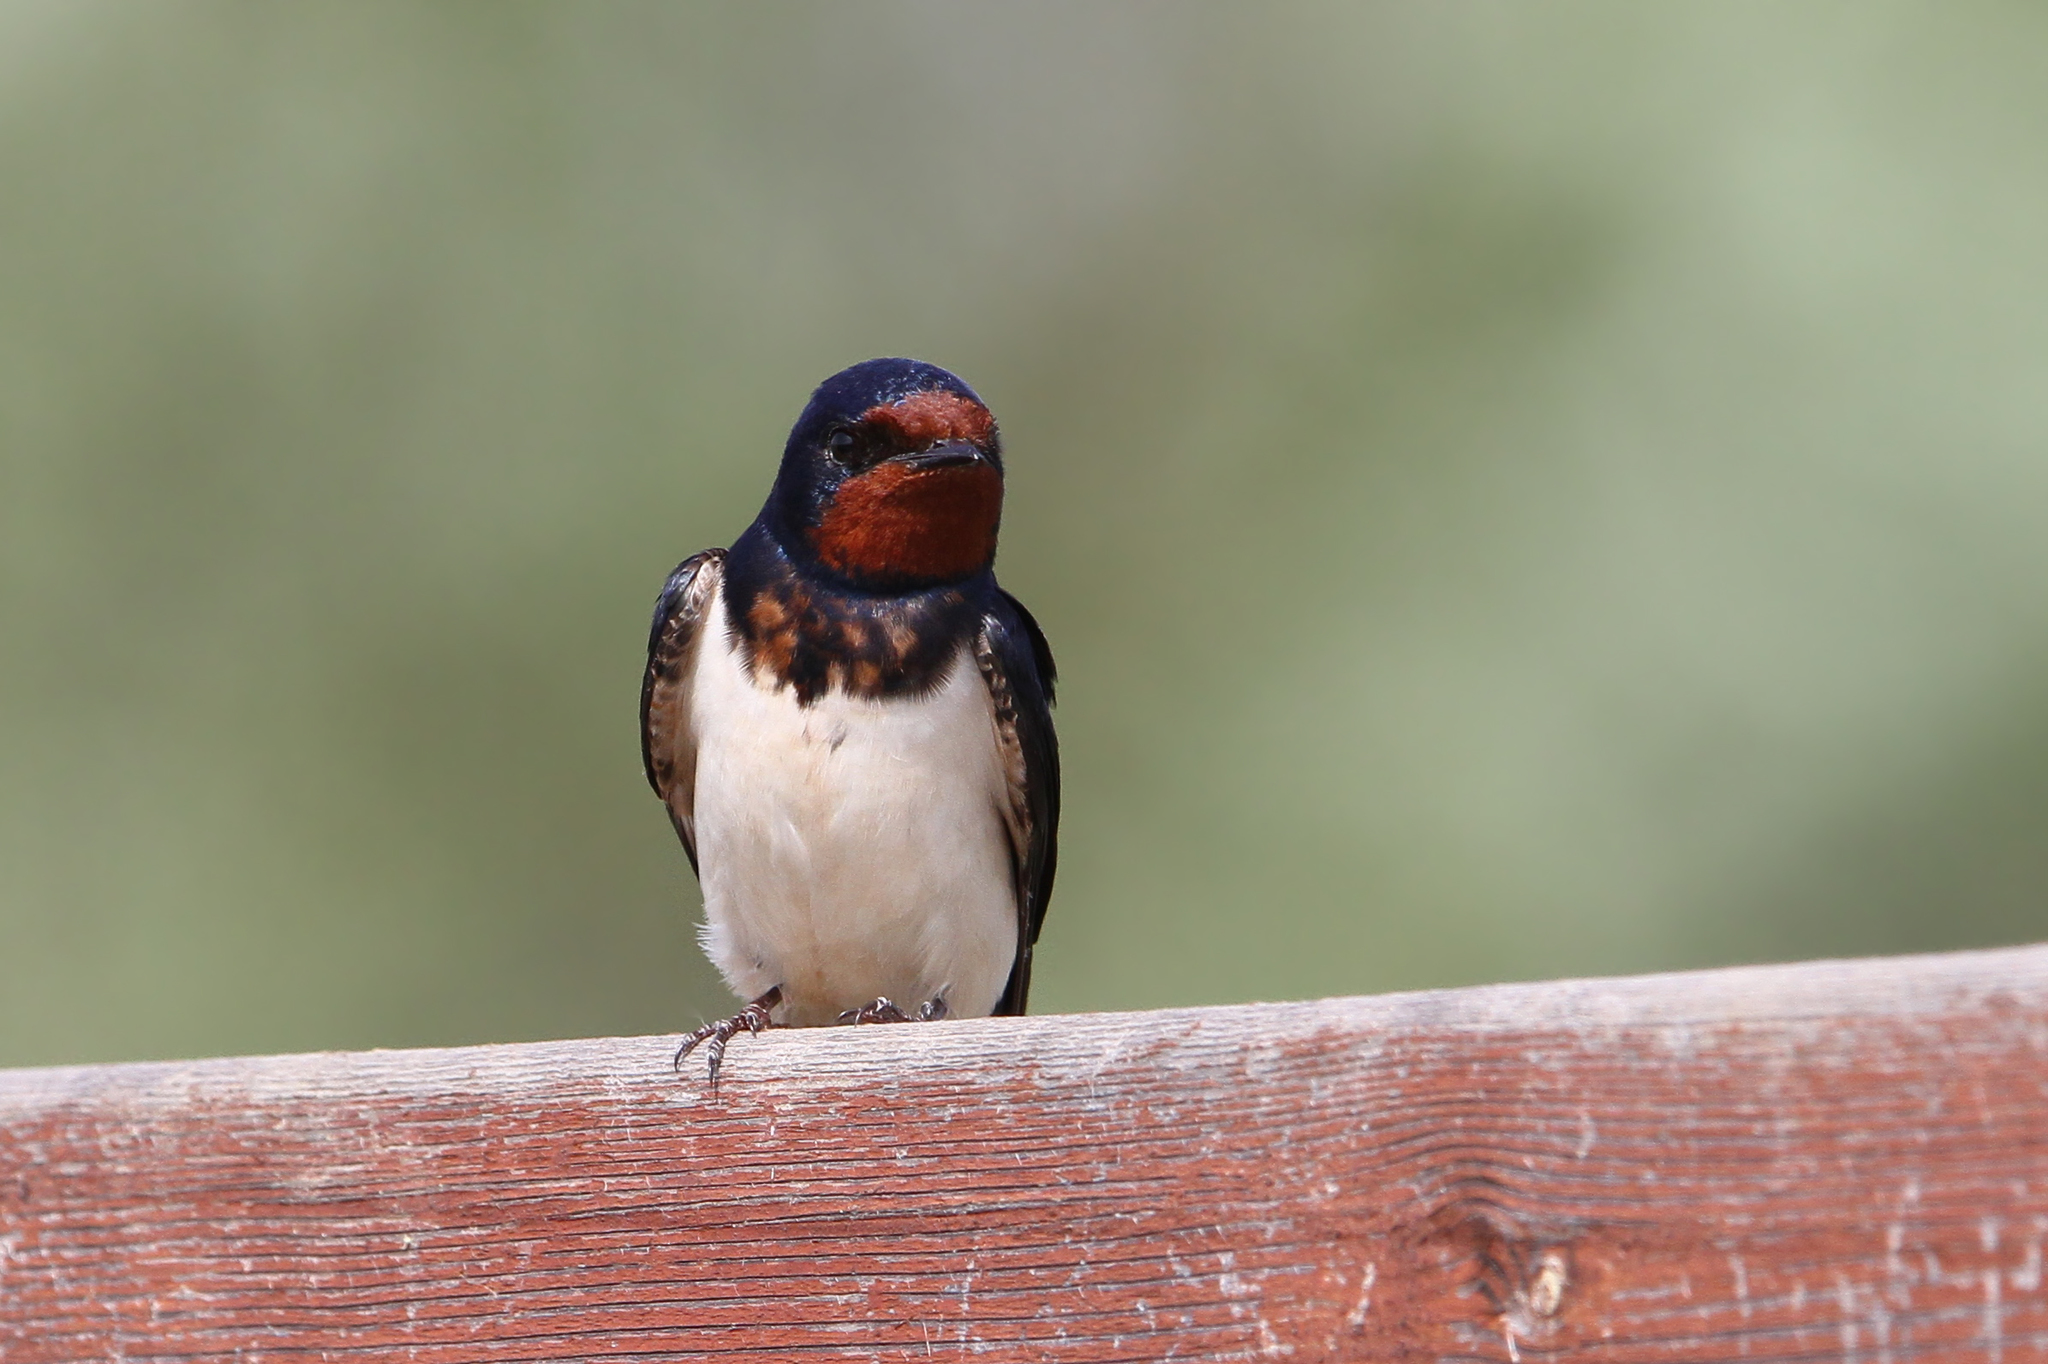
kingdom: Animalia
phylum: Chordata
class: Aves
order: Passeriformes
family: Hirundinidae
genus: Hirundo
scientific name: Hirundo rustica
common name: Barn swallow
